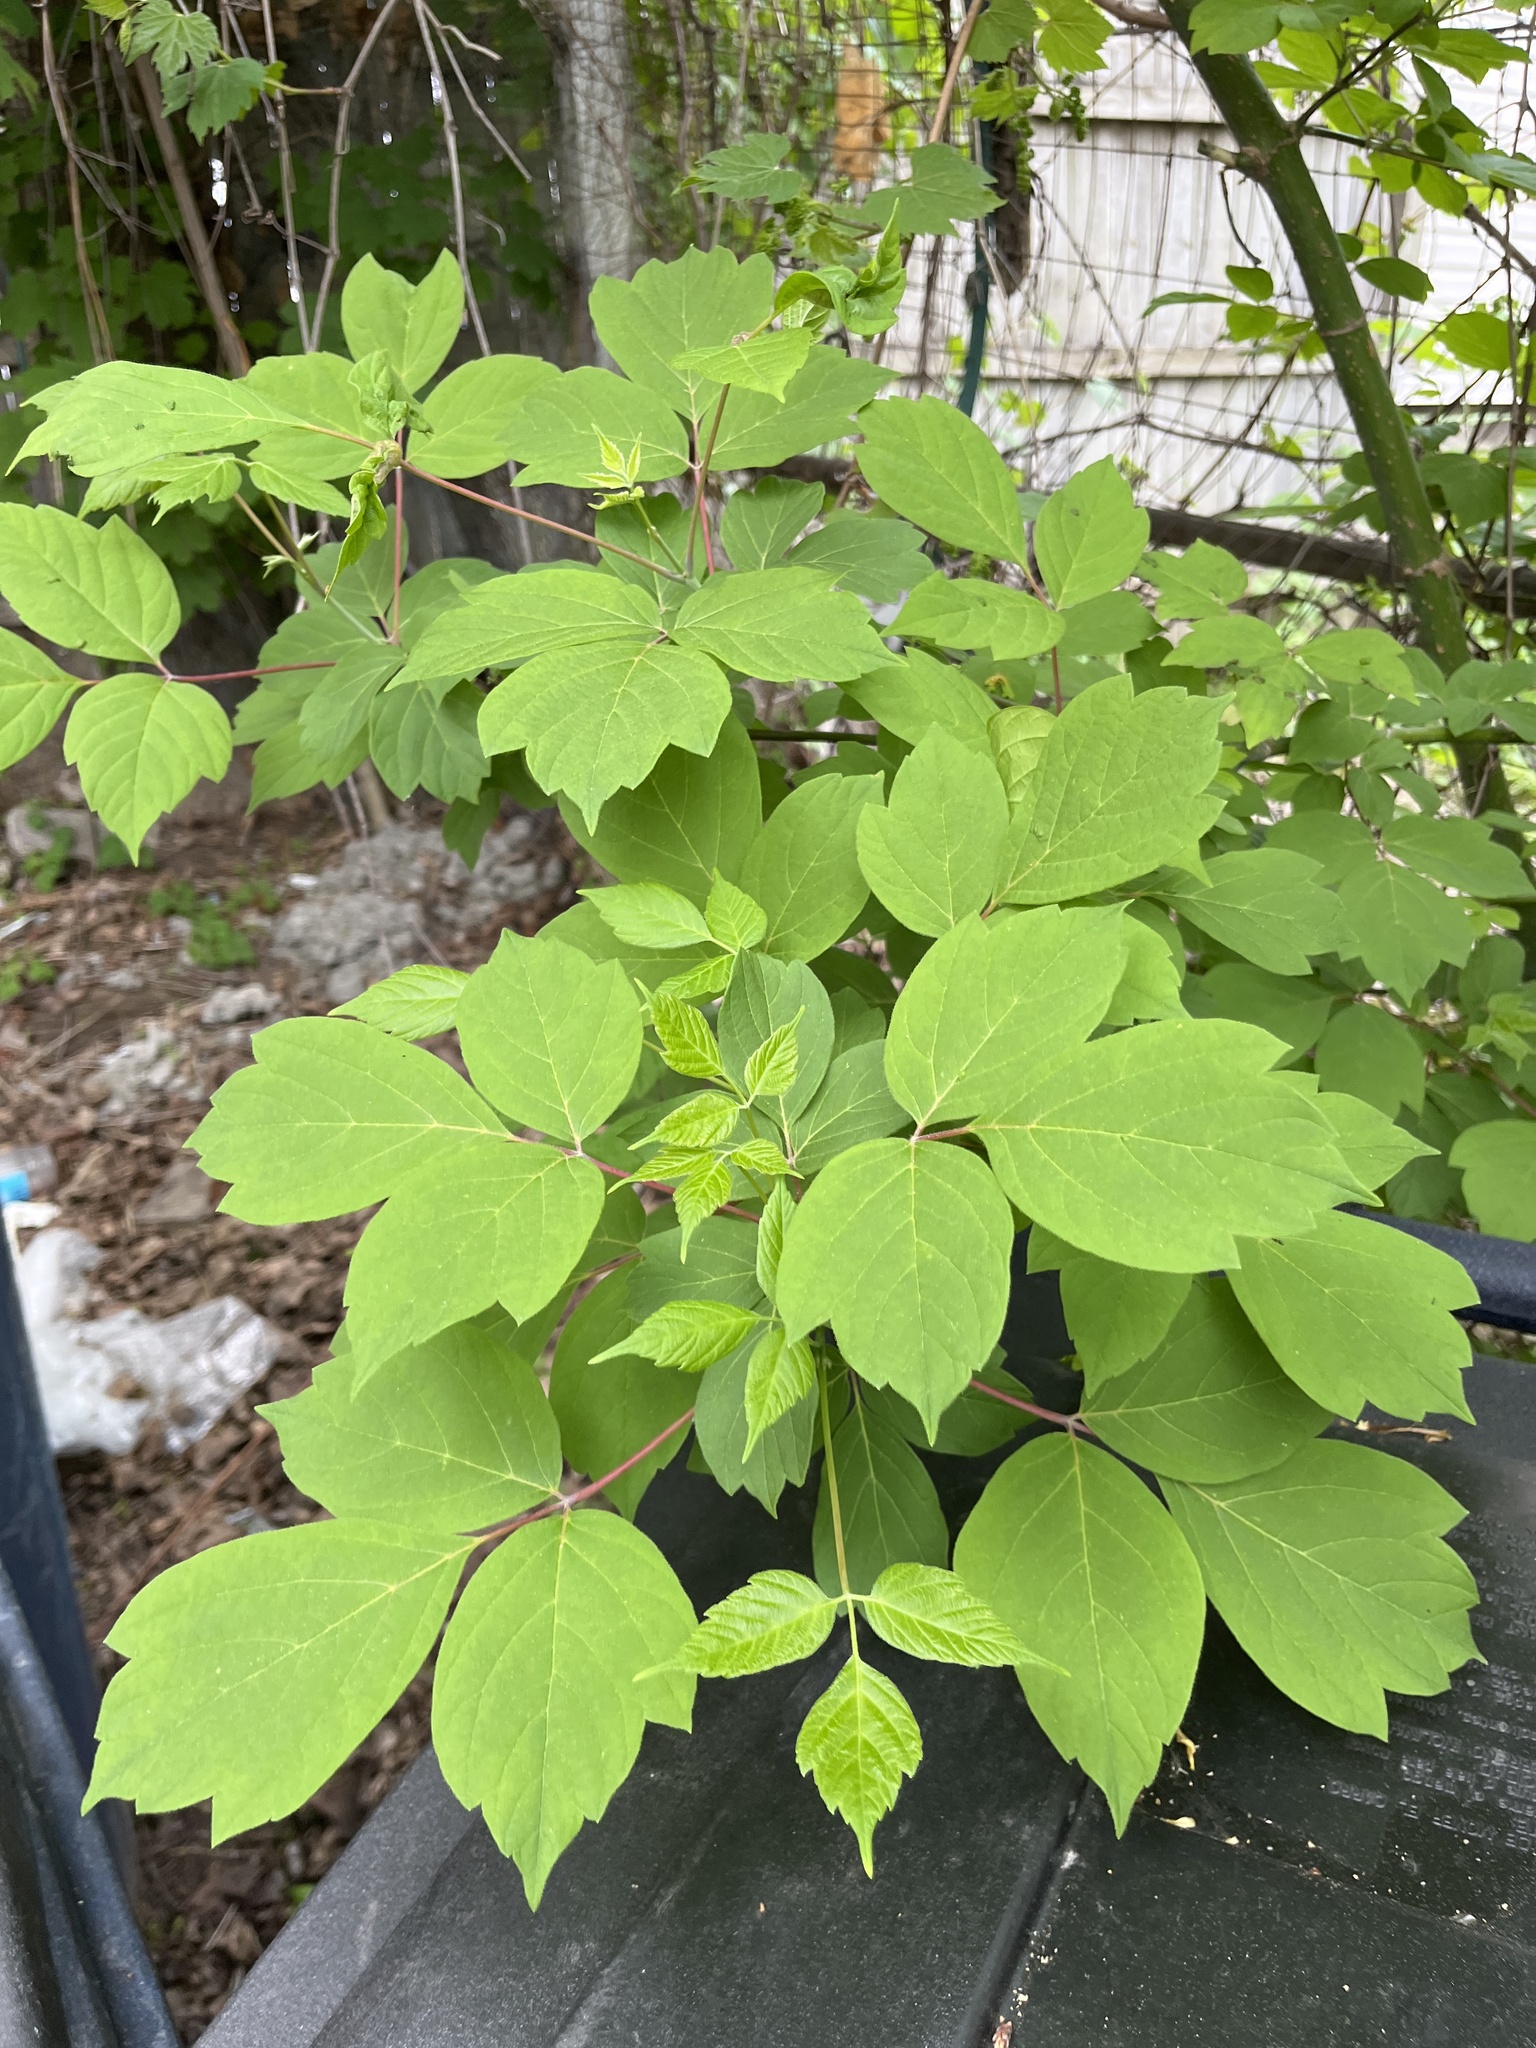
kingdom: Plantae
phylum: Tracheophyta
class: Magnoliopsida
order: Sapindales
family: Sapindaceae
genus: Acer
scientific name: Acer negundo
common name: Ashleaf maple
